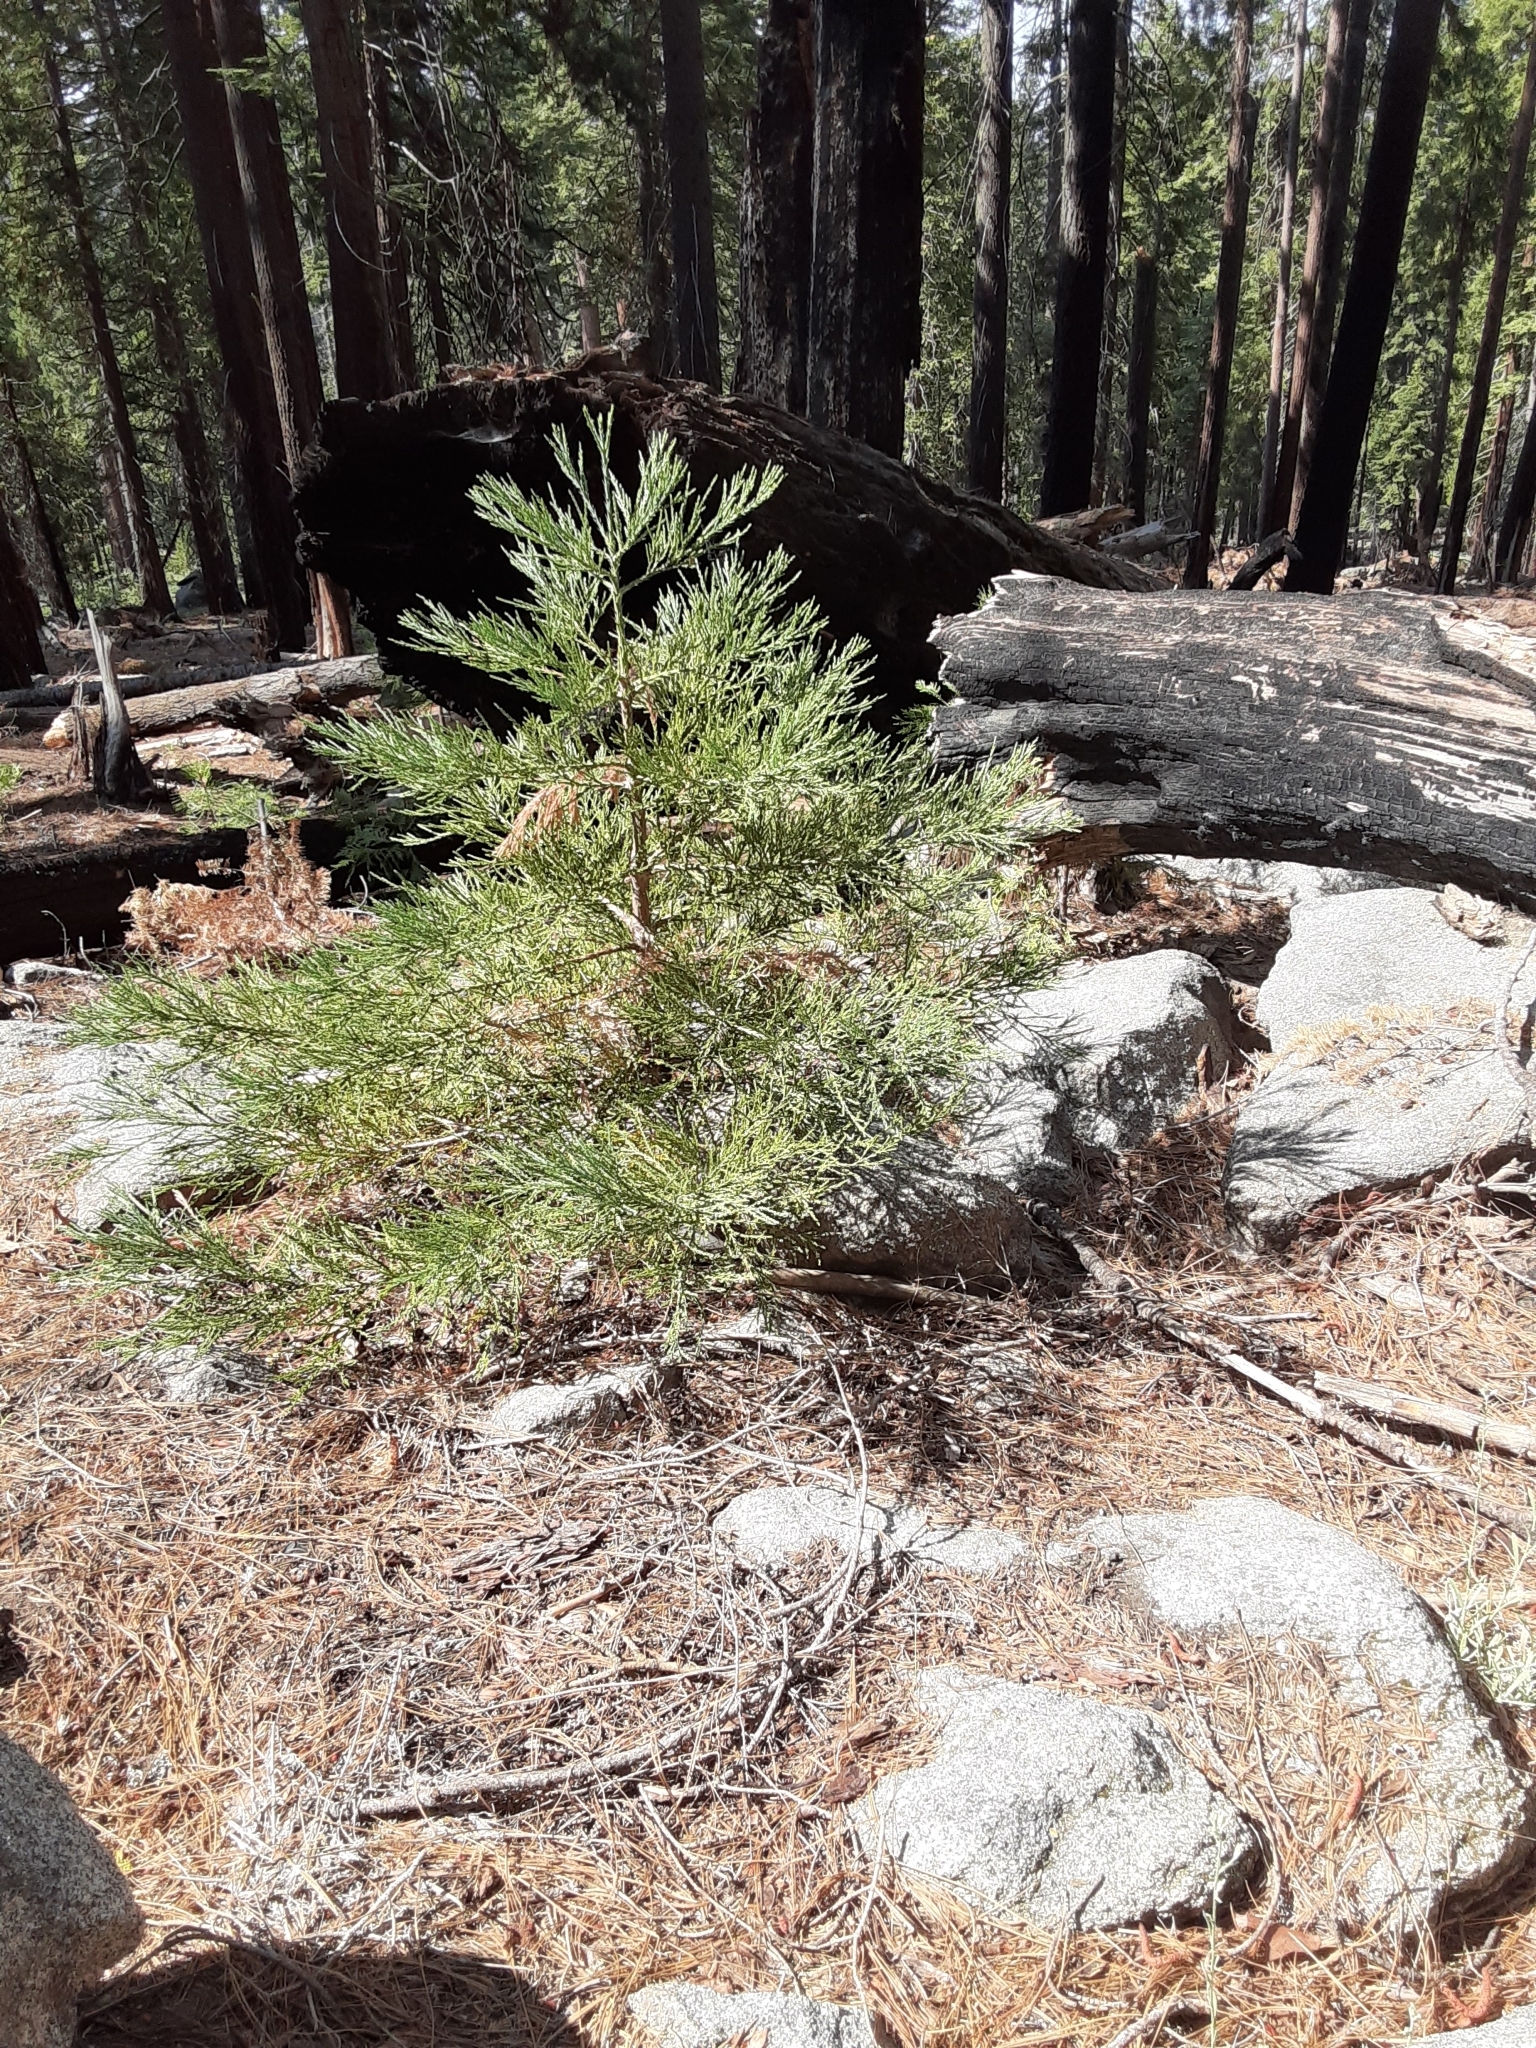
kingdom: Plantae
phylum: Tracheophyta
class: Pinopsida
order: Pinales
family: Cupressaceae
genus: Sequoiadendron
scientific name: Sequoiadendron giganteum
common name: Wellingtonia
